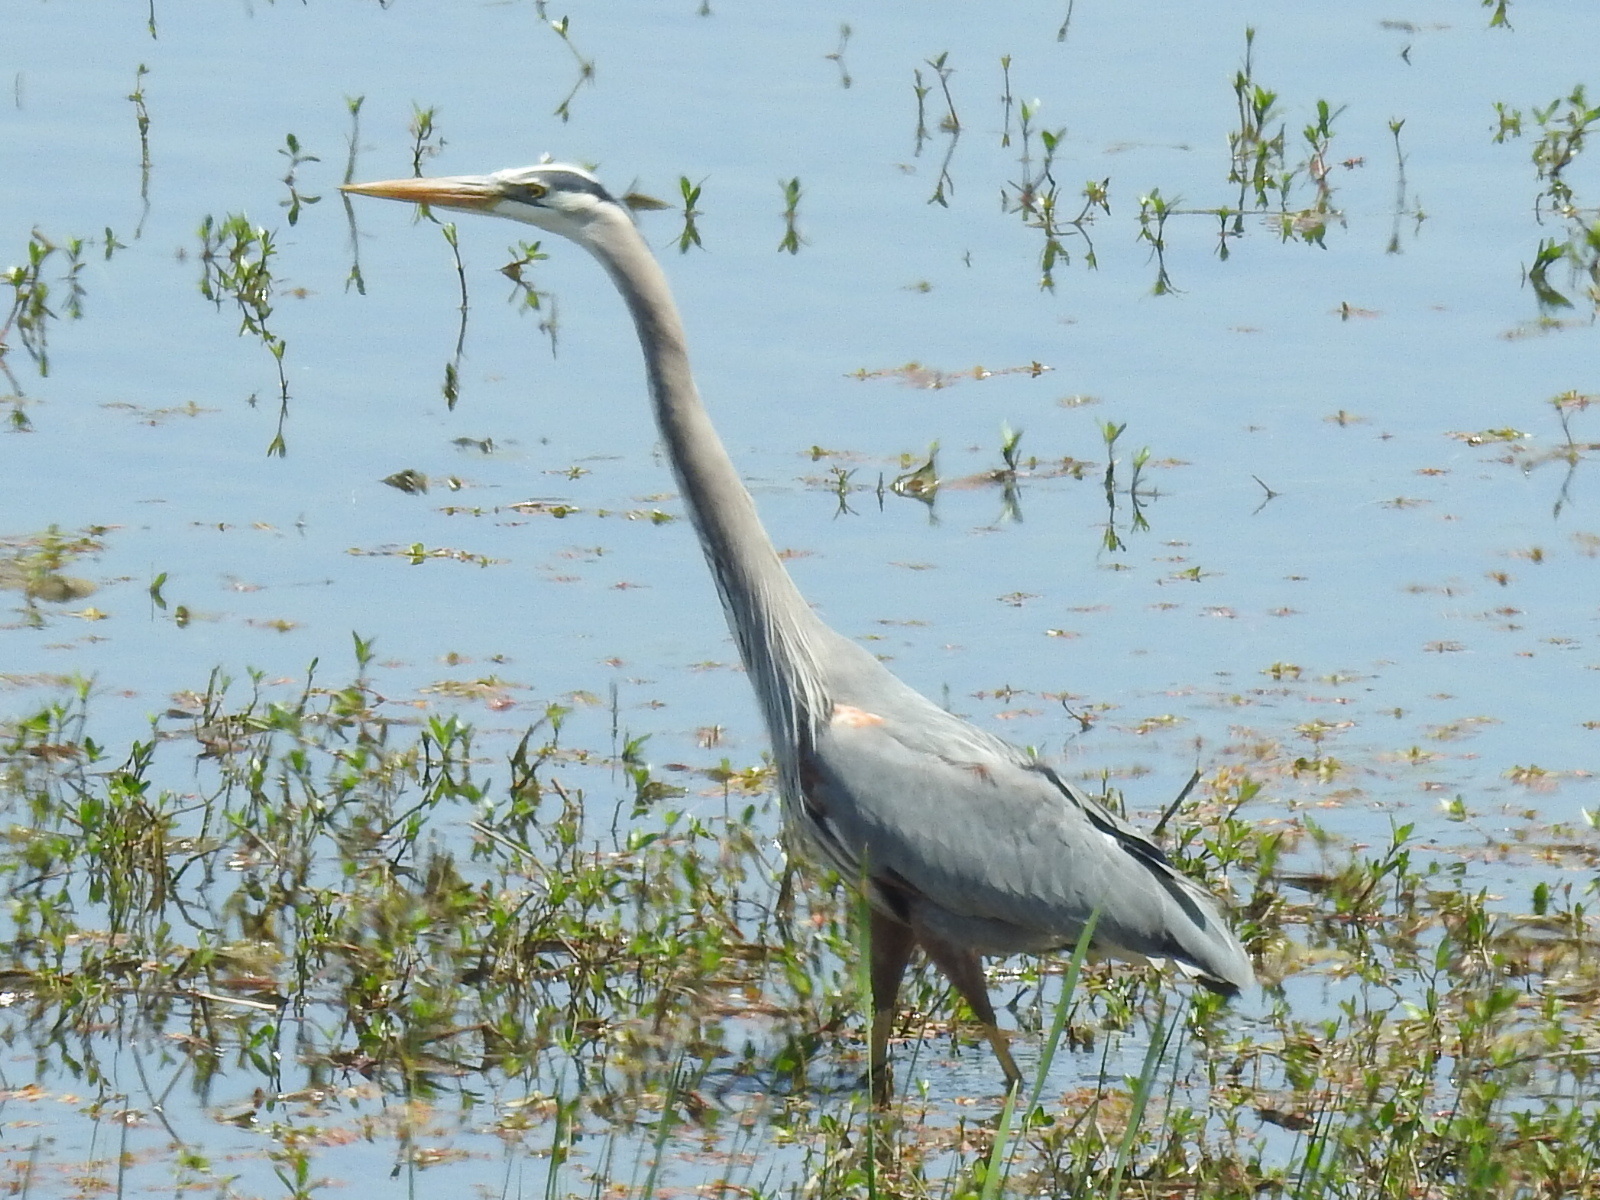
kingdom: Animalia
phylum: Chordata
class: Aves
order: Pelecaniformes
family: Ardeidae
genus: Ardea
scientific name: Ardea herodias
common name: Great blue heron
